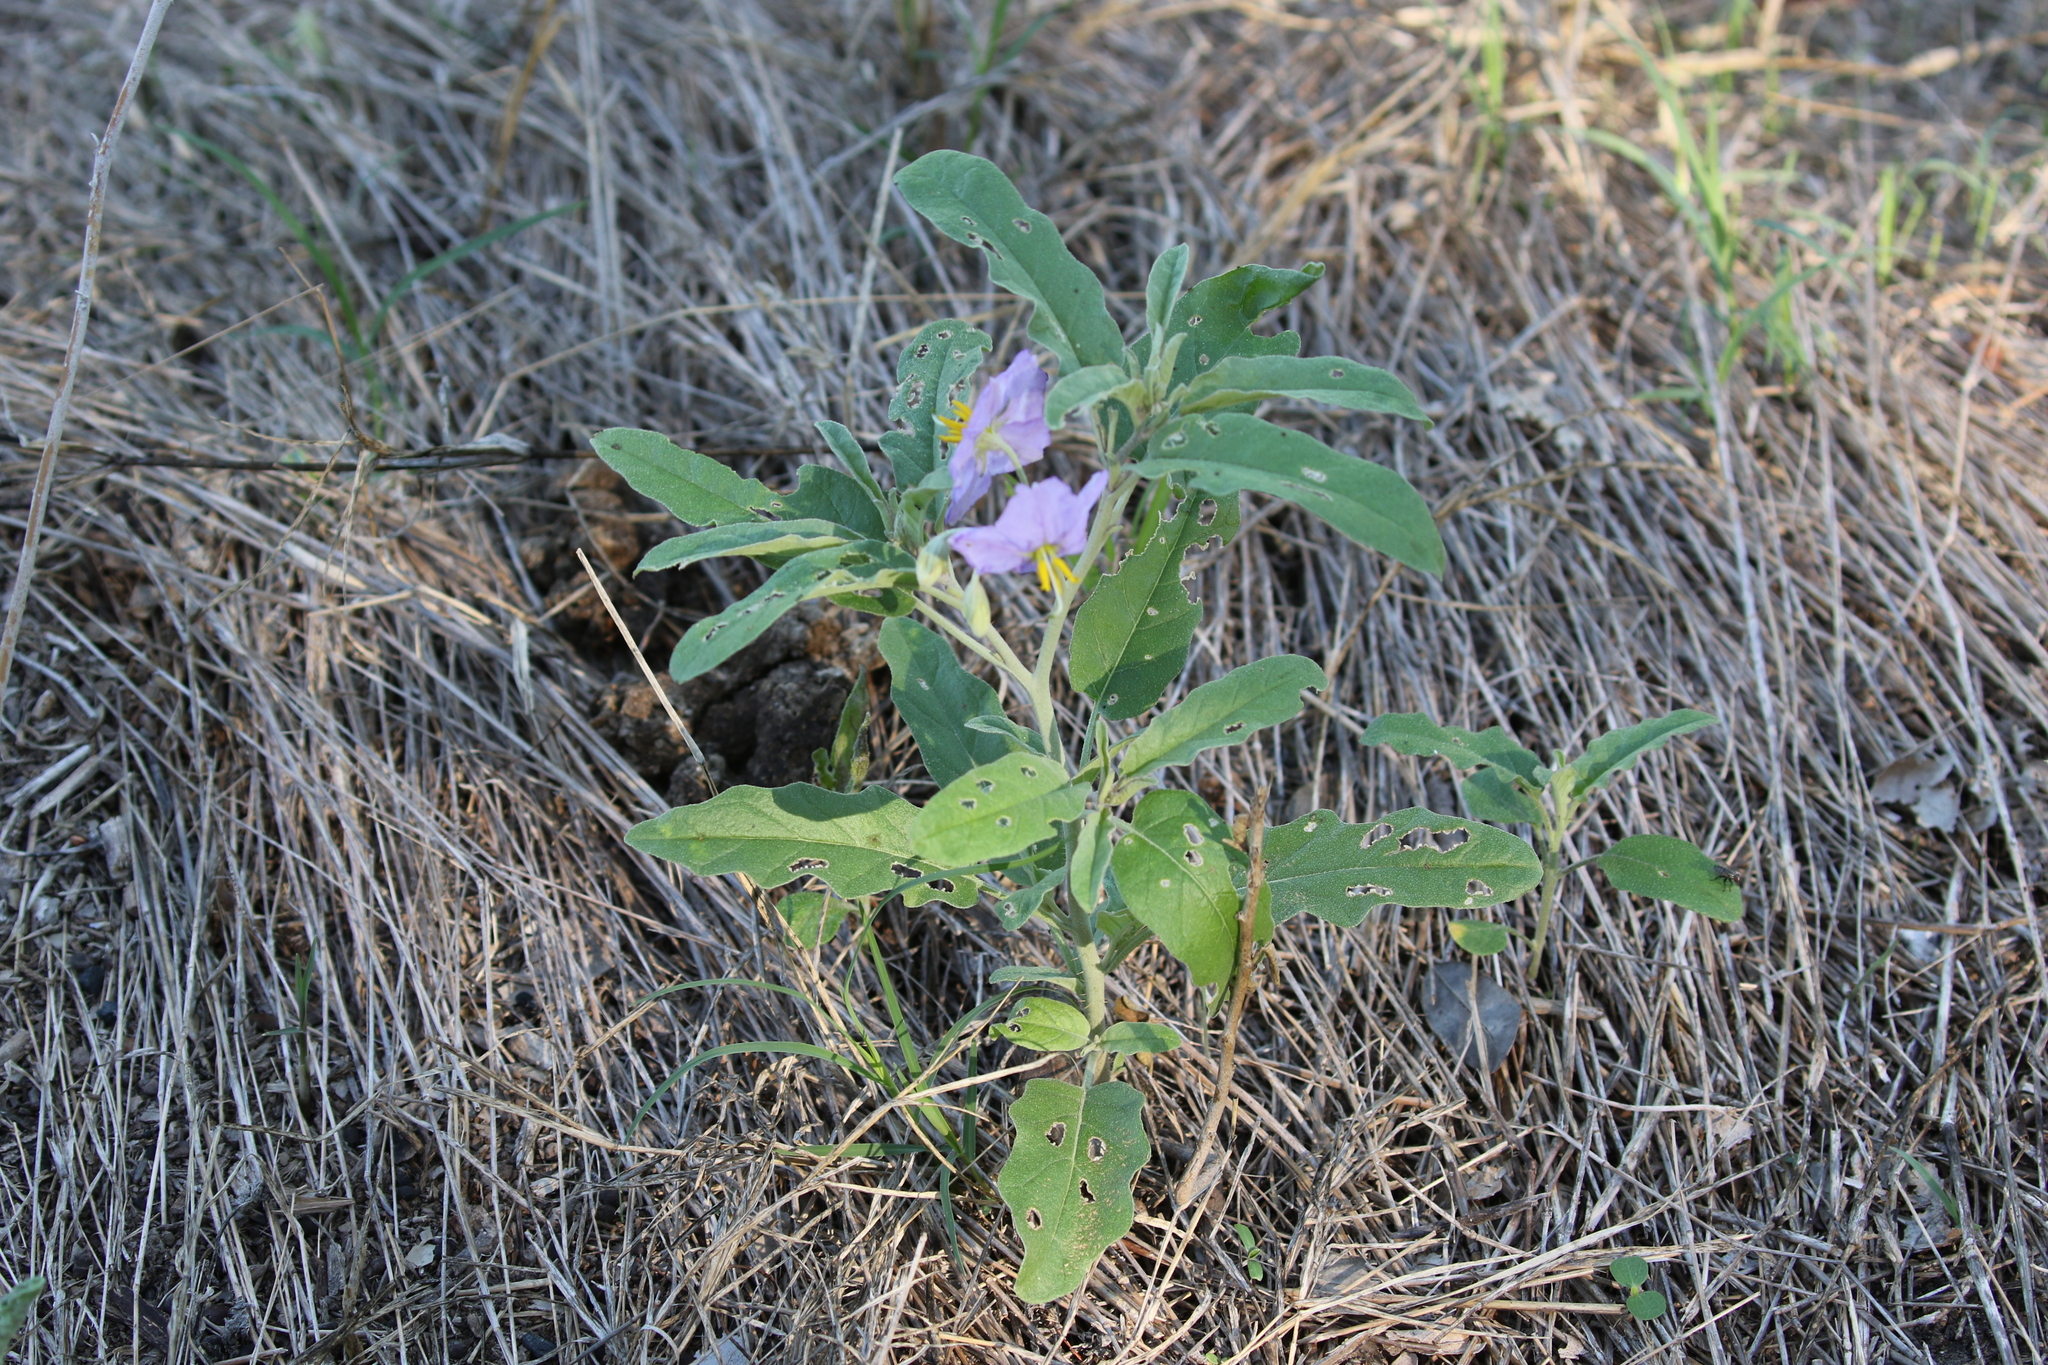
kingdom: Plantae
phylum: Tracheophyta
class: Magnoliopsida
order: Solanales
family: Solanaceae
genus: Solanum
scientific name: Solanum elaeagnifolium
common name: Silverleaf nightshade
